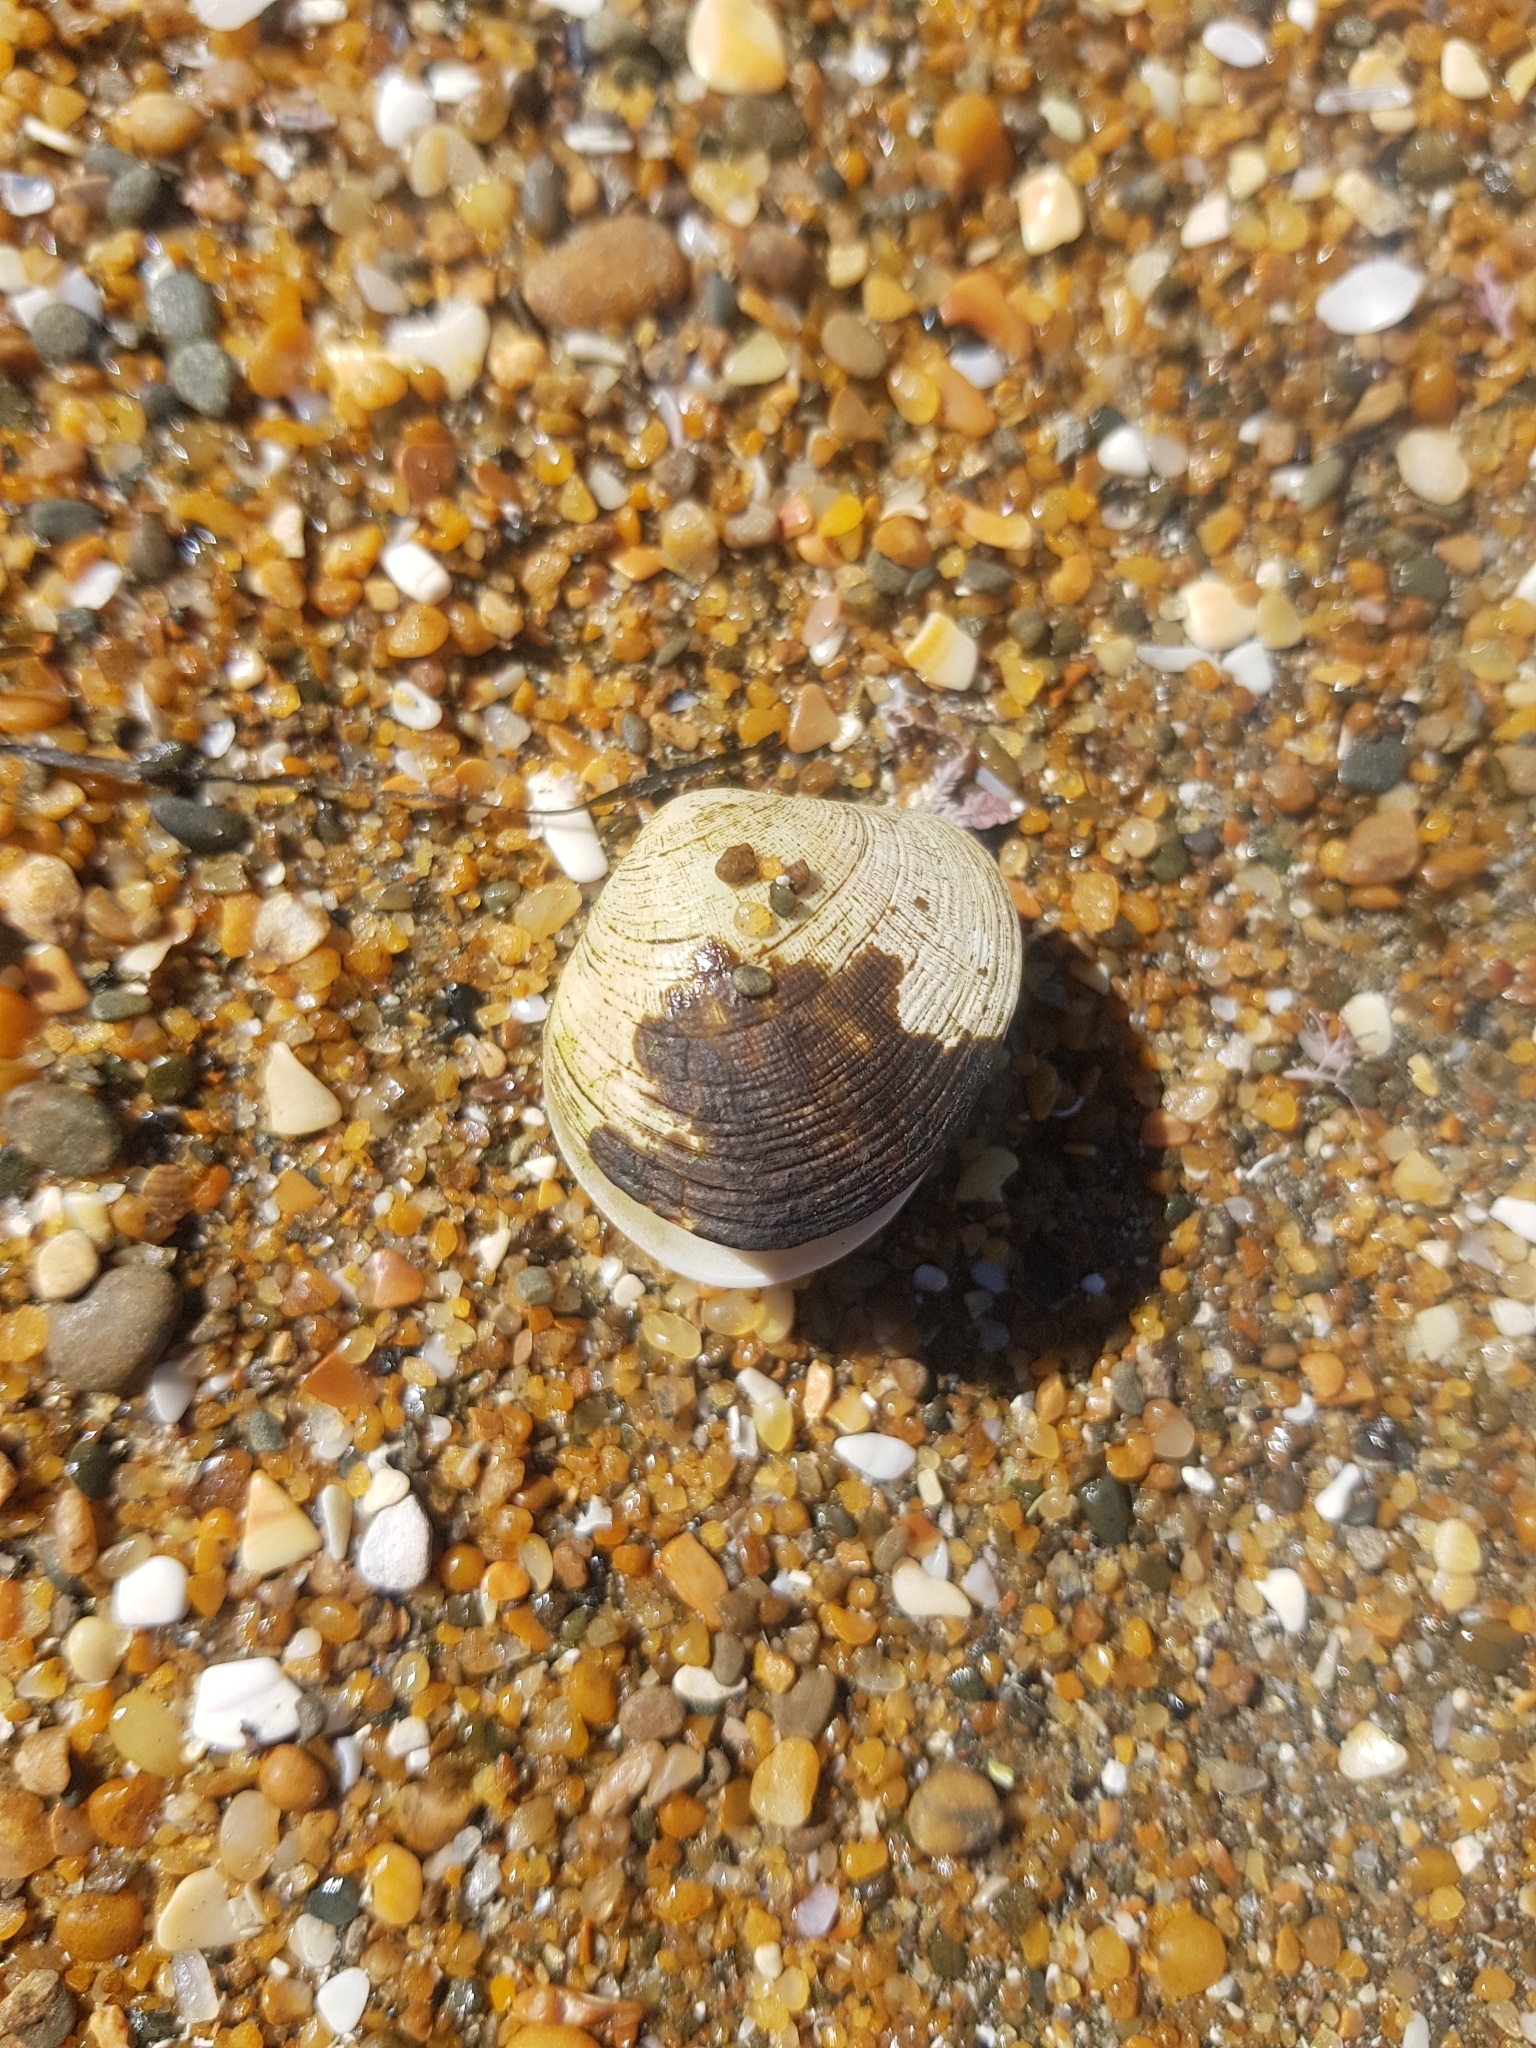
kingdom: Animalia
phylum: Mollusca
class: Bivalvia
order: Venerida
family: Veneridae
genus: Venerupis
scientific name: Venerupis largillierti
